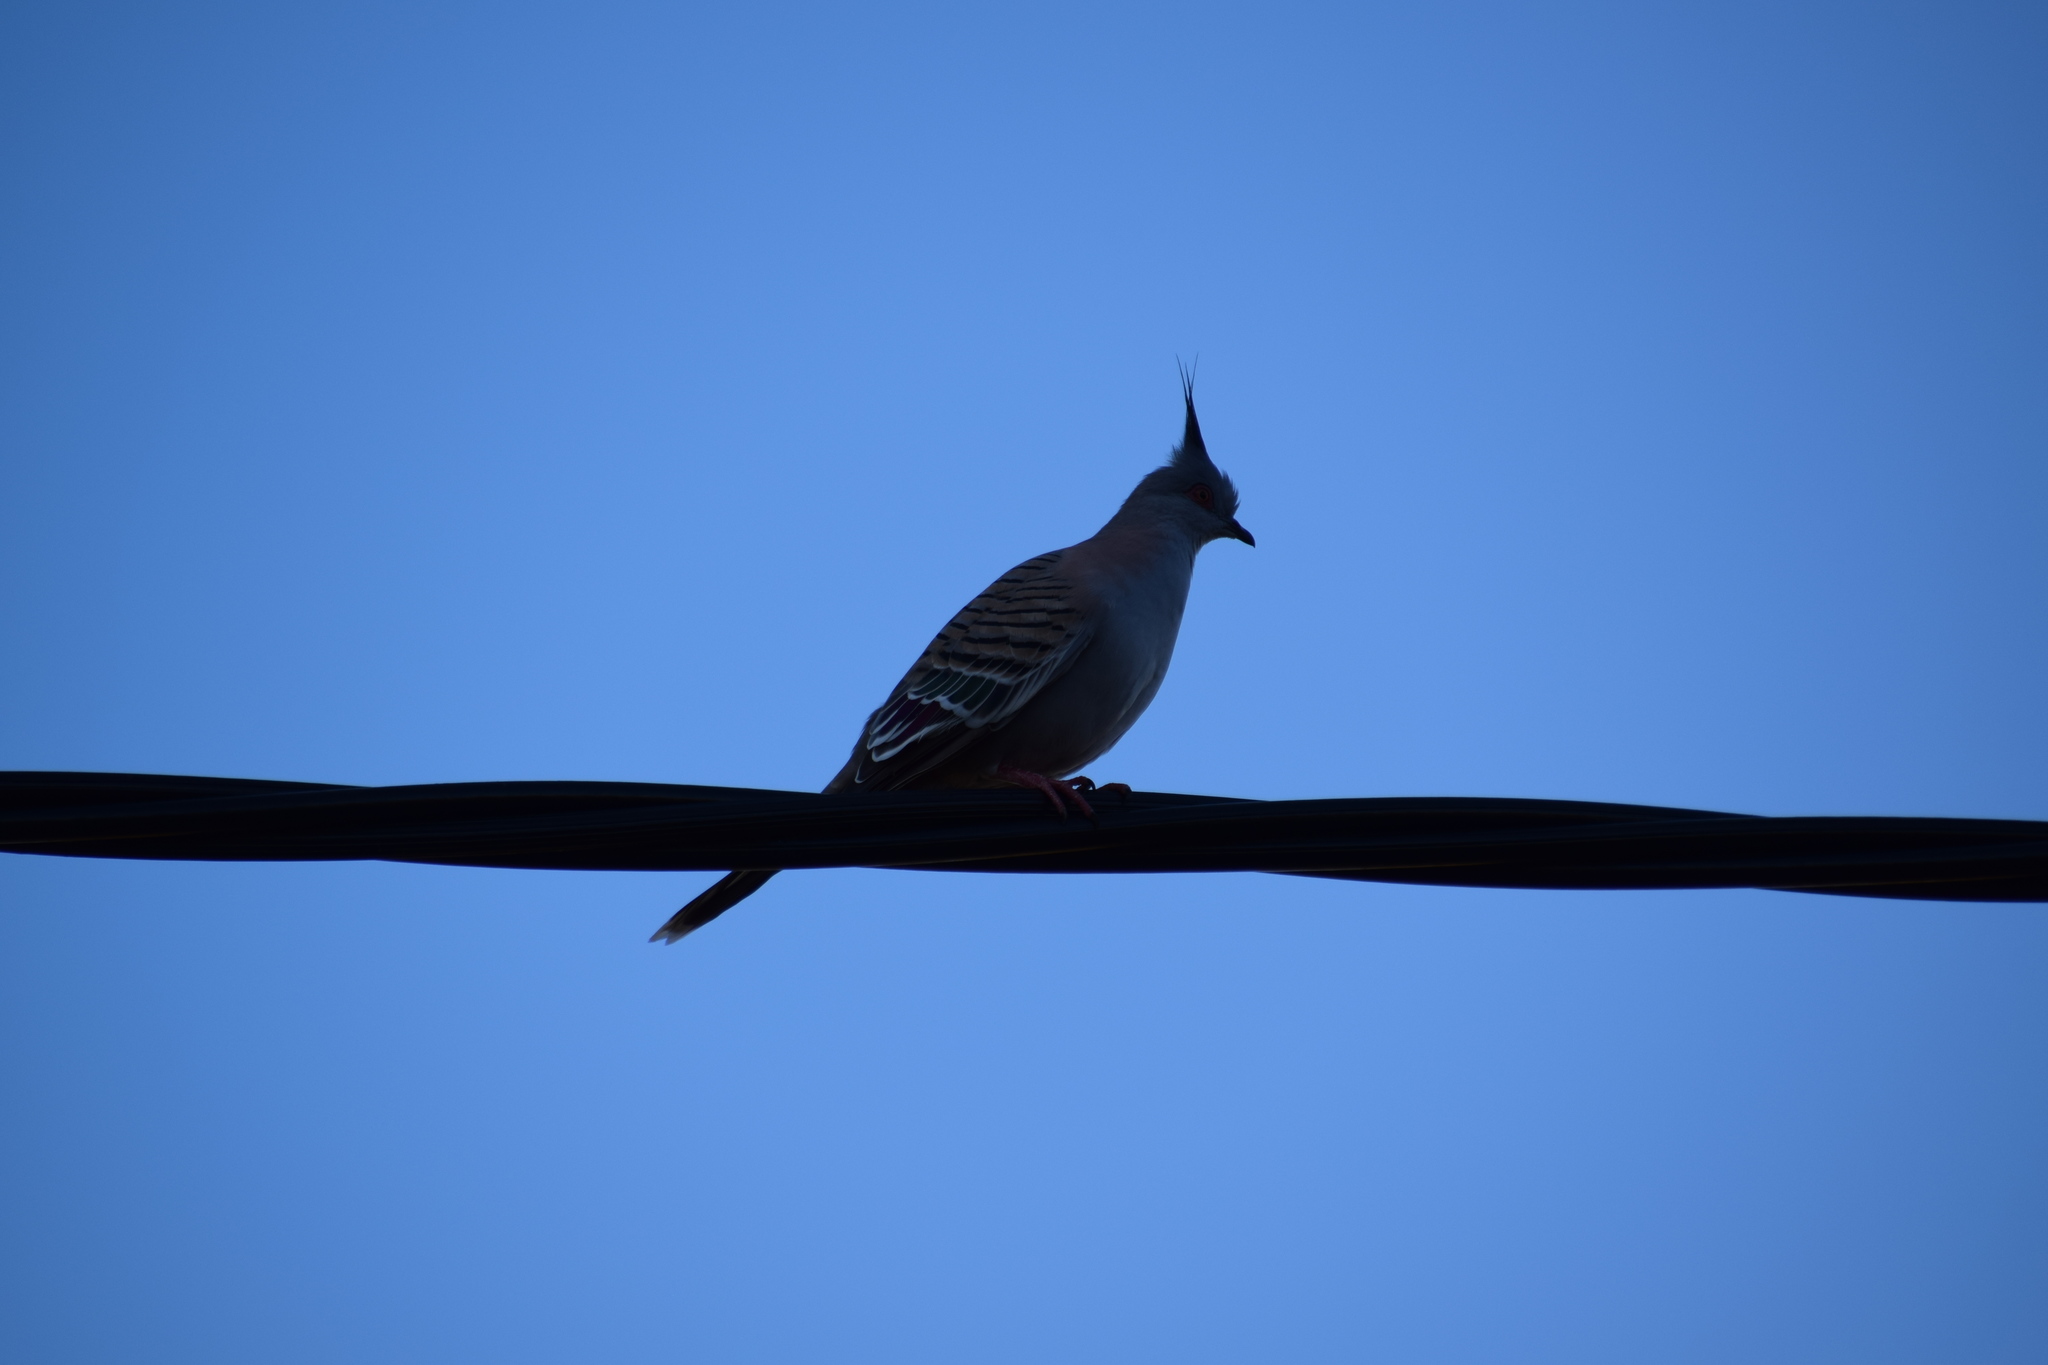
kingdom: Animalia
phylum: Chordata
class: Aves
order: Columbiformes
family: Columbidae
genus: Ocyphaps
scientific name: Ocyphaps lophotes
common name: Crested pigeon
